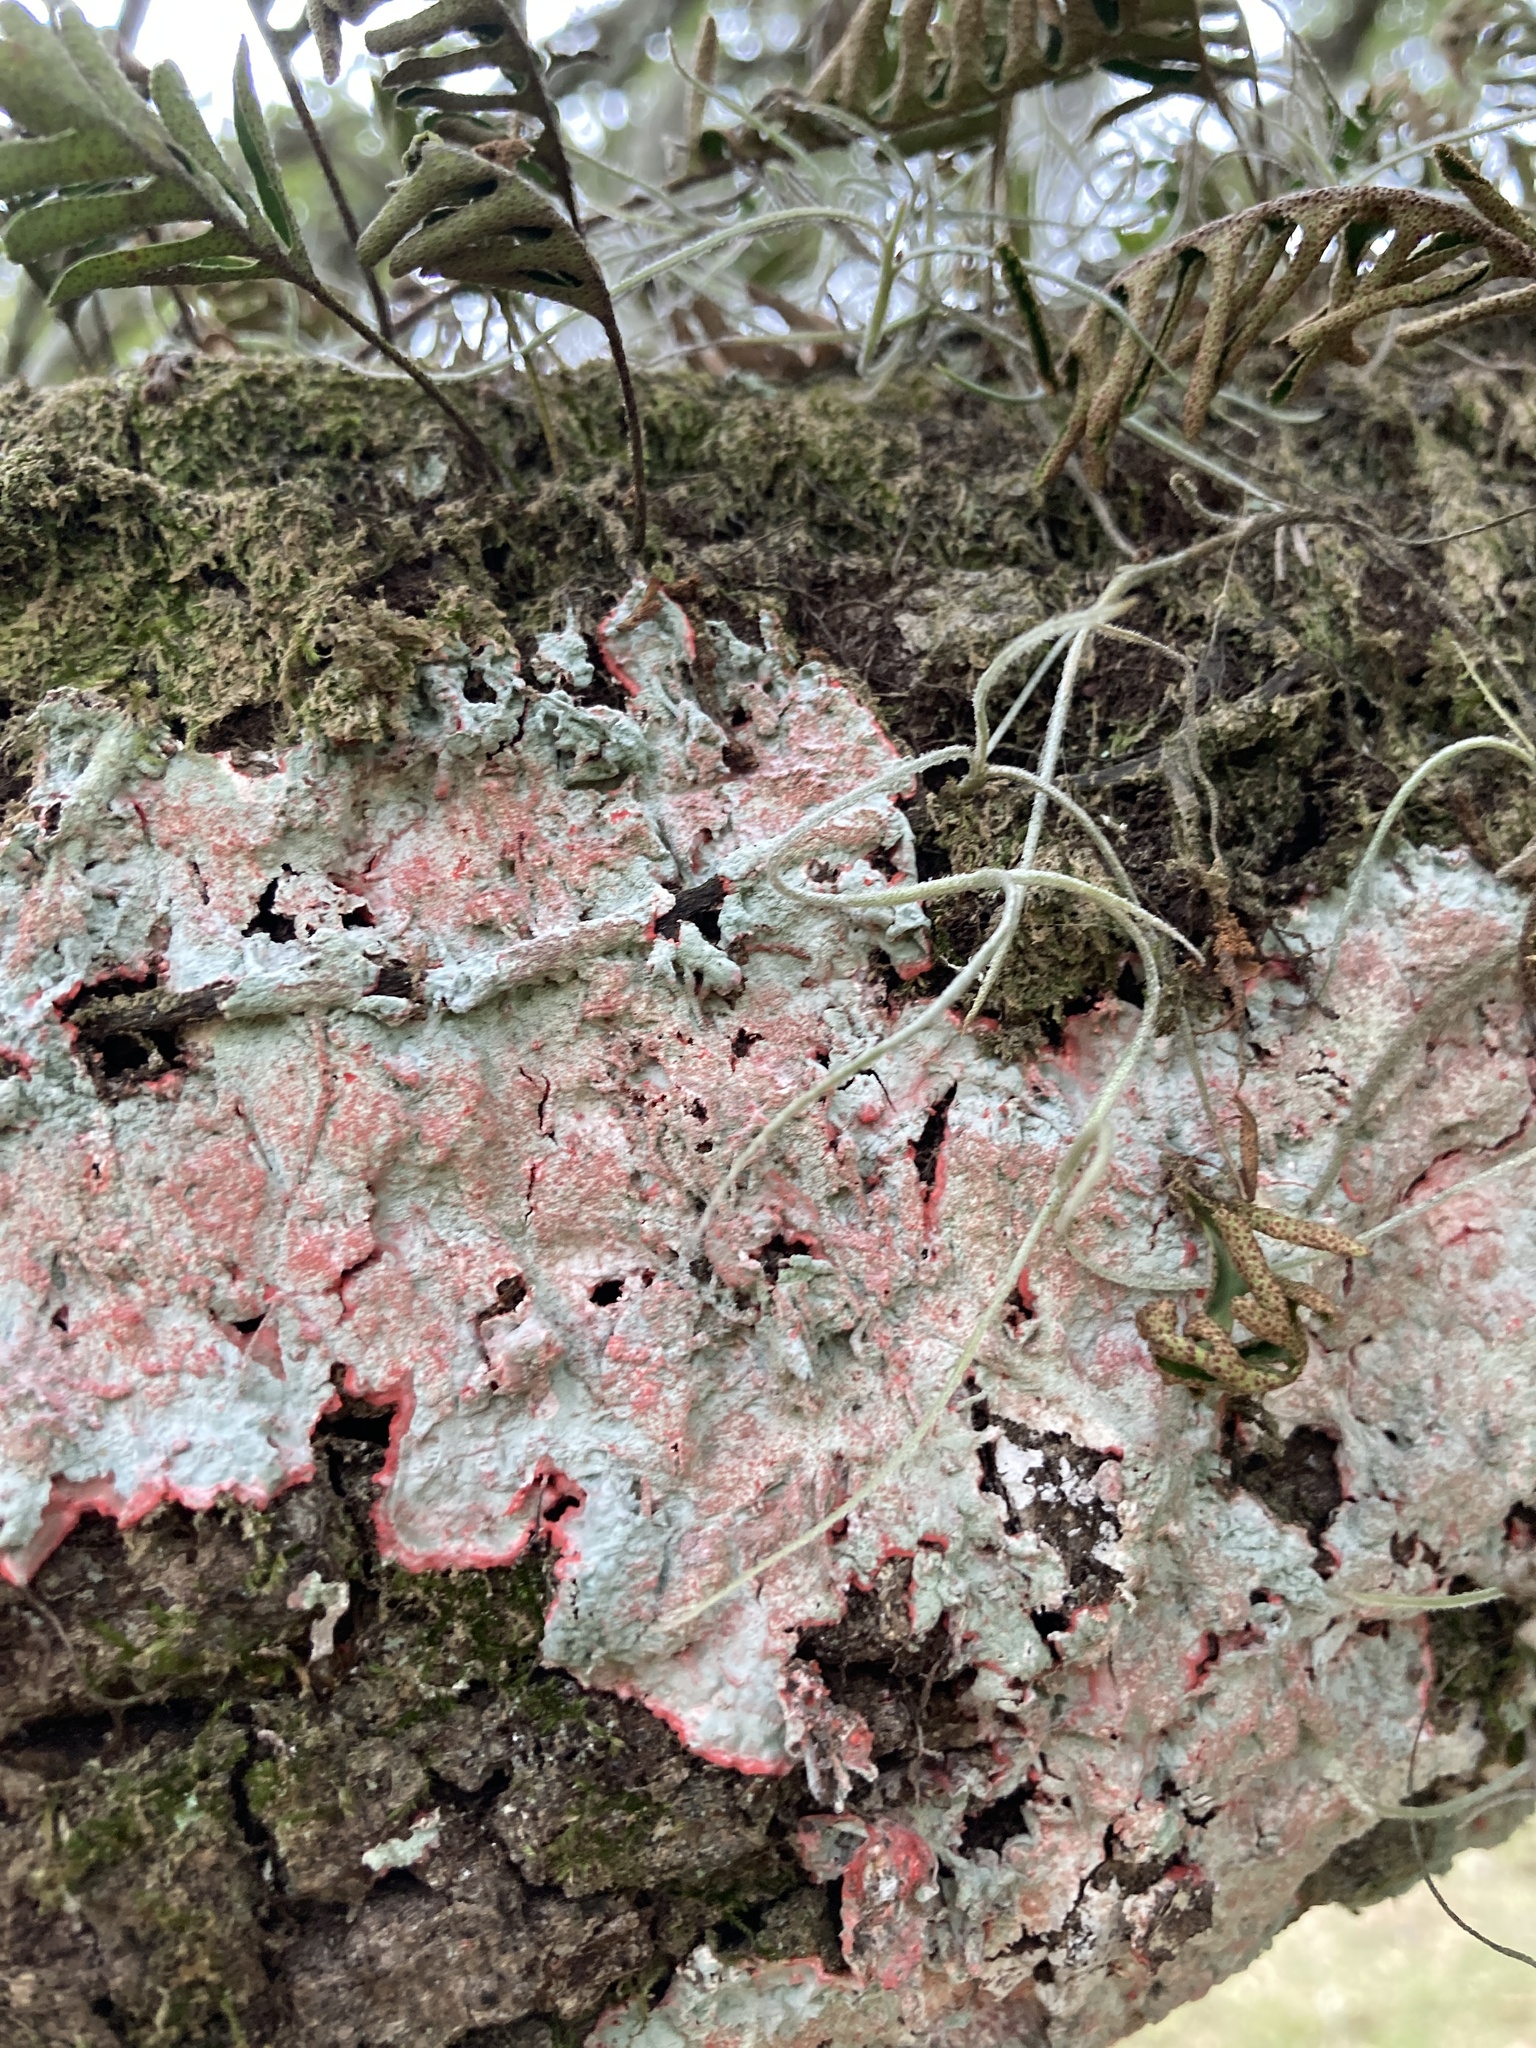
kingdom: Fungi
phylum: Ascomycota
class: Arthoniomycetes
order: Arthoniales
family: Arthoniaceae
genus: Herpothallon
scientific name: Herpothallon rubrocinctum
